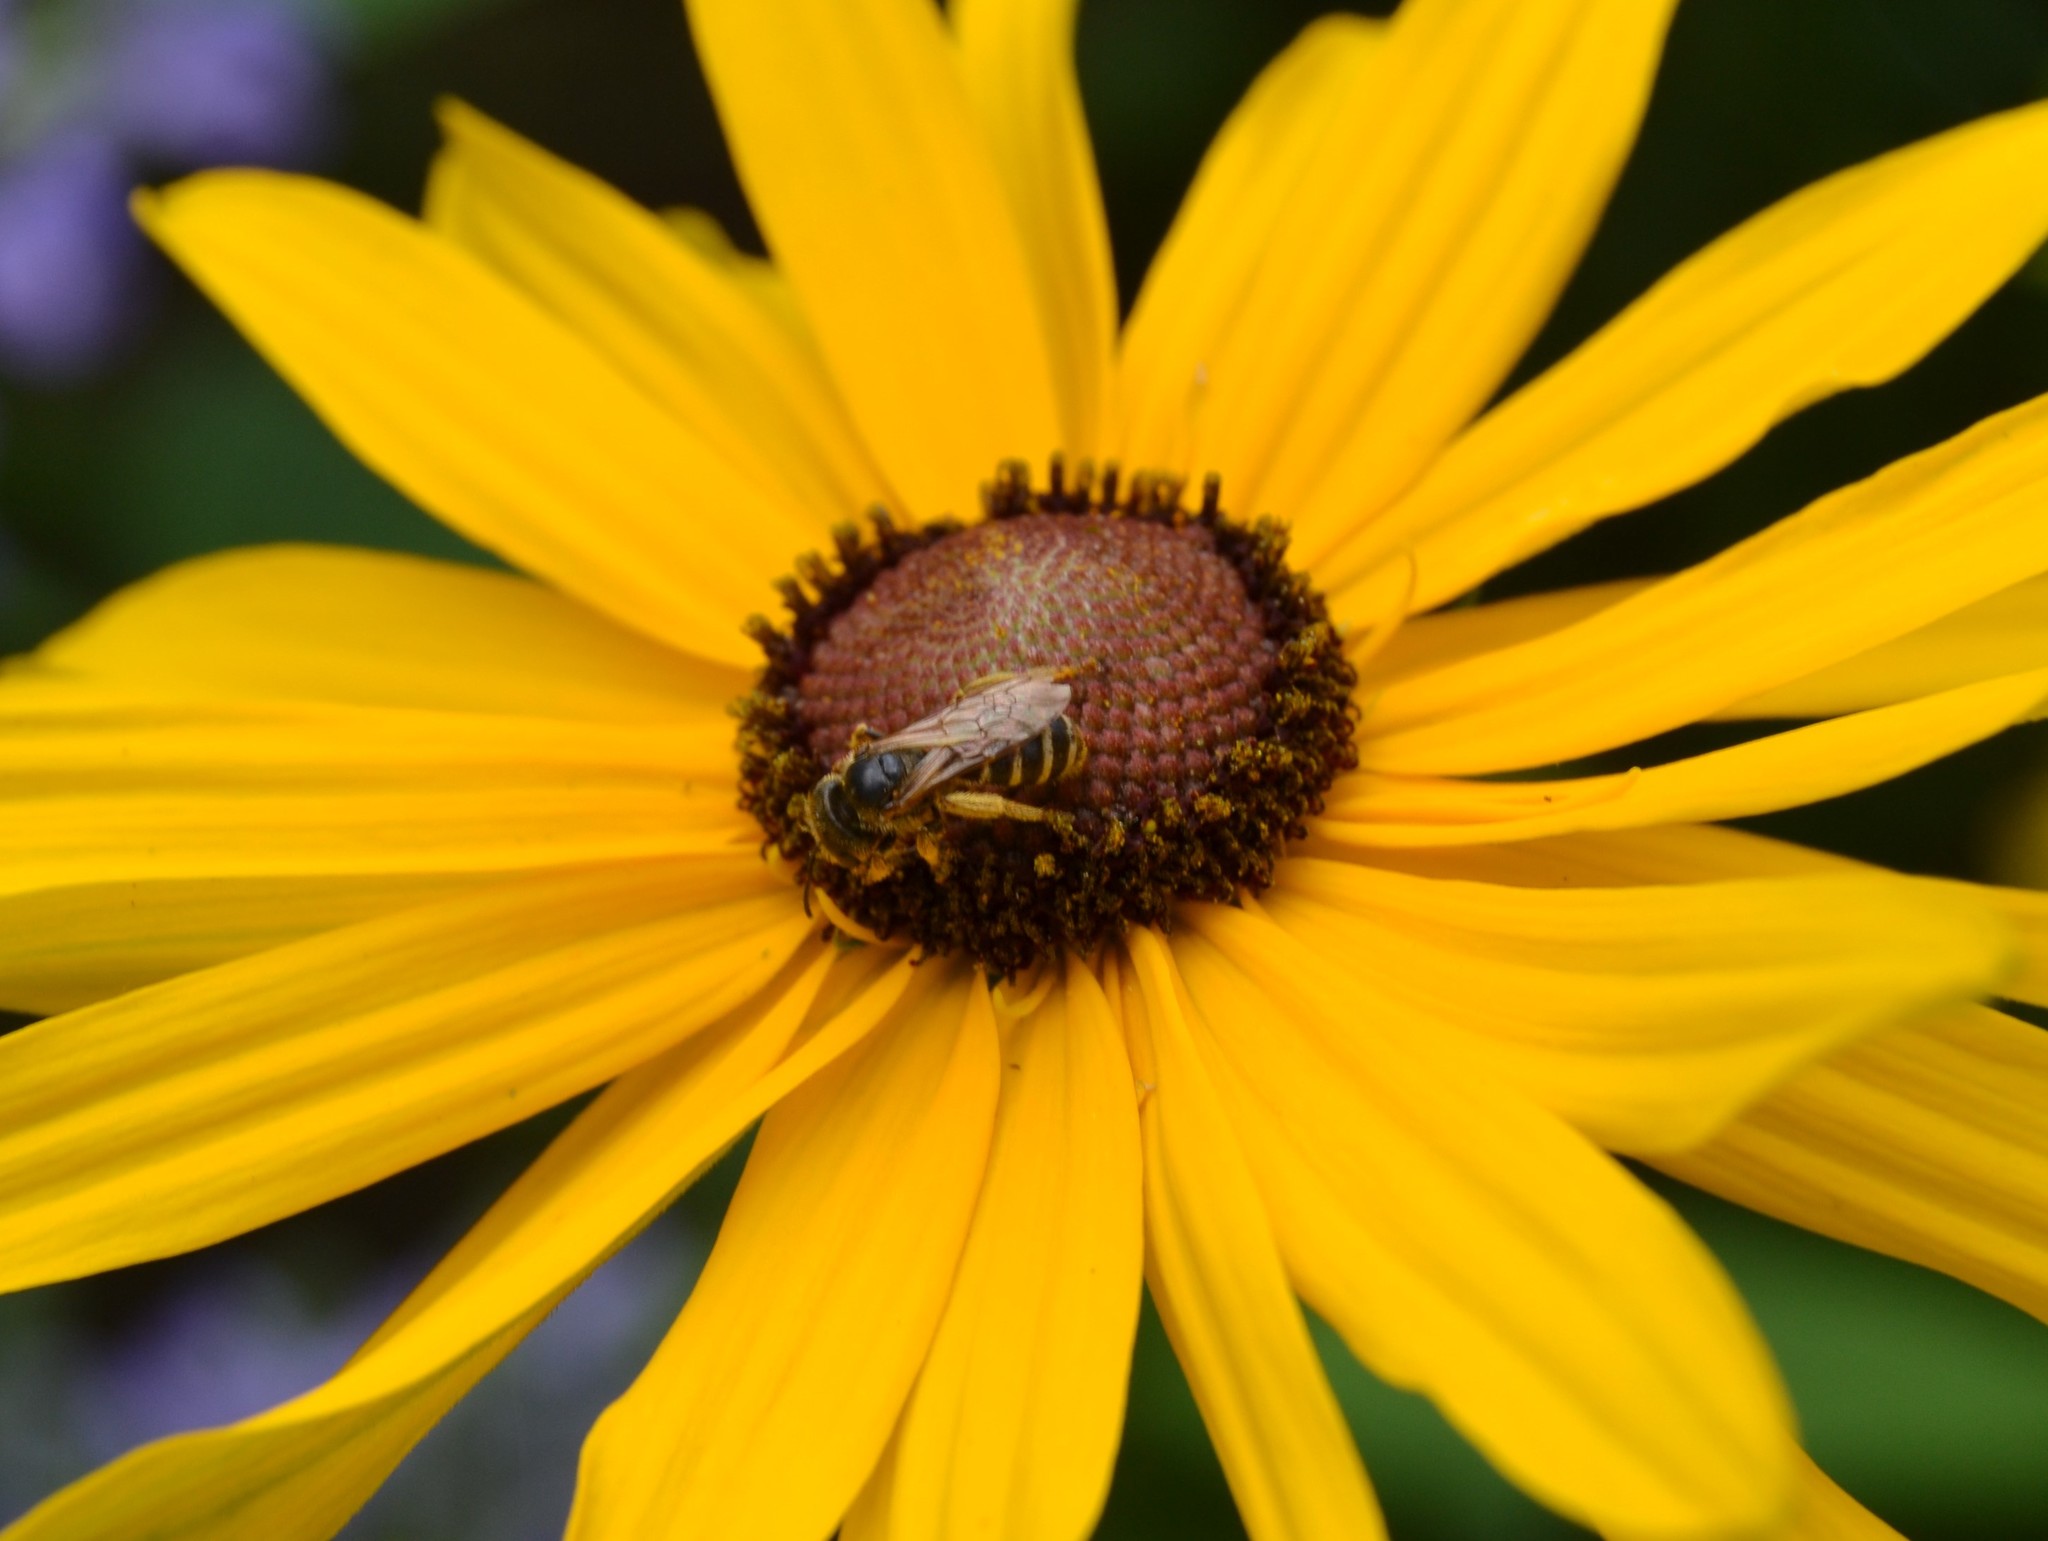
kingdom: Animalia
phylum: Arthropoda
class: Insecta
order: Hymenoptera
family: Halictidae
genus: Halictus
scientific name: Halictus ligatus
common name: Ligated furrow bee
